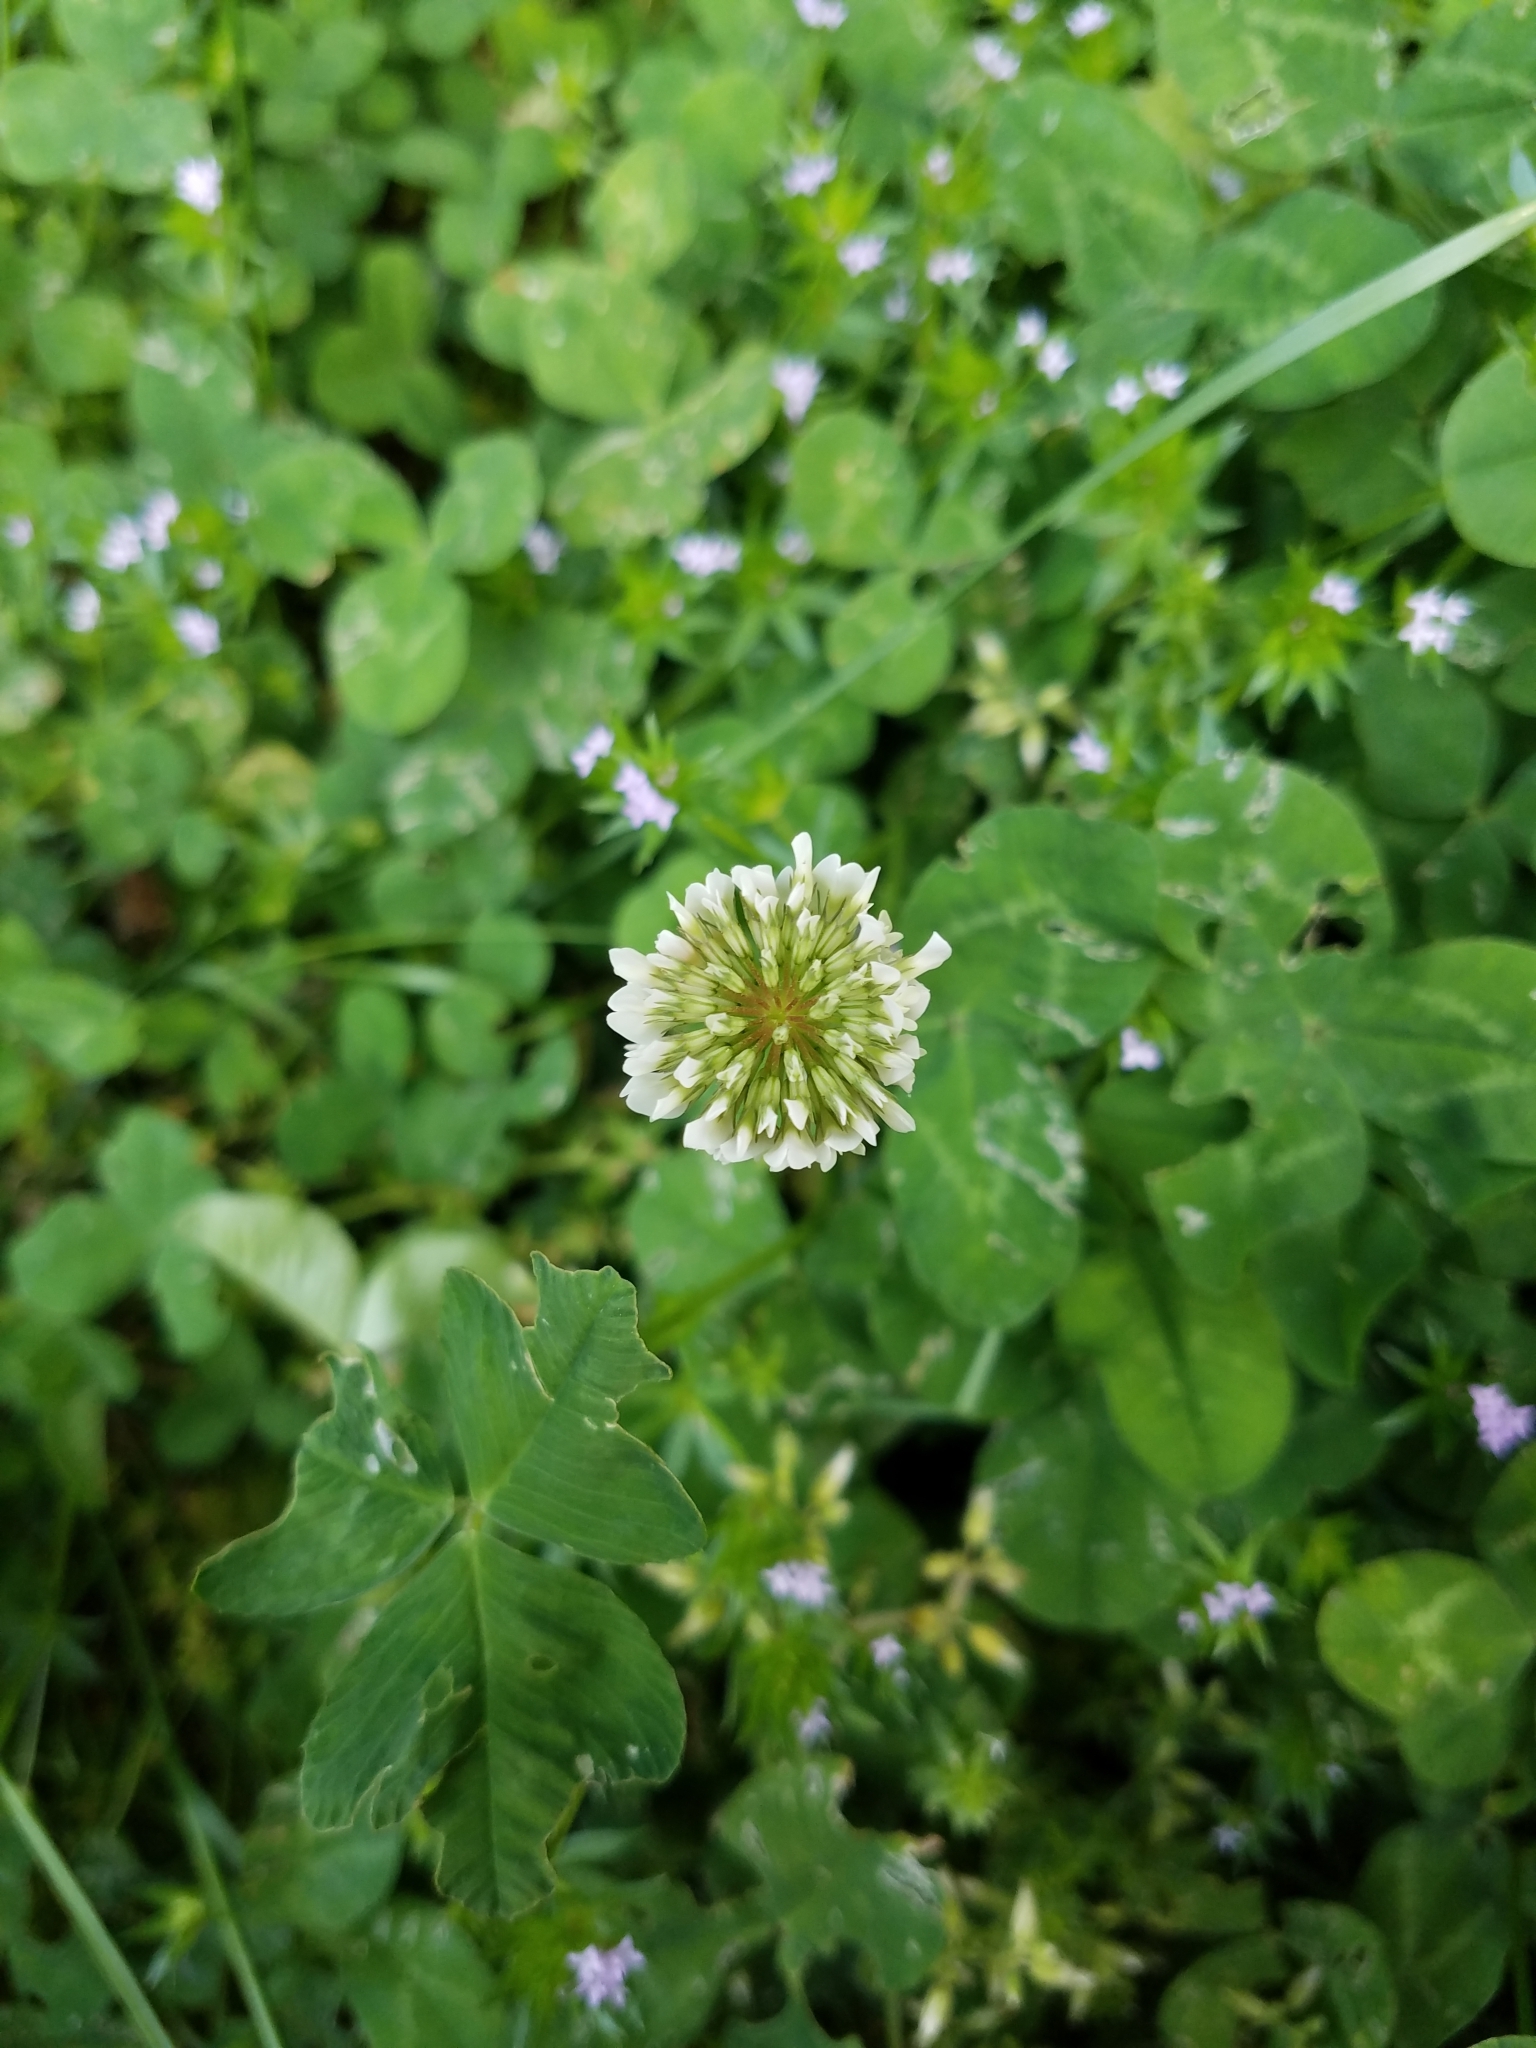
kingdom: Plantae
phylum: Tracheophyta
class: Magnoliopsida
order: Fabales
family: Fabaceae
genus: Trifolium
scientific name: Trifolium repens
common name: White clover
